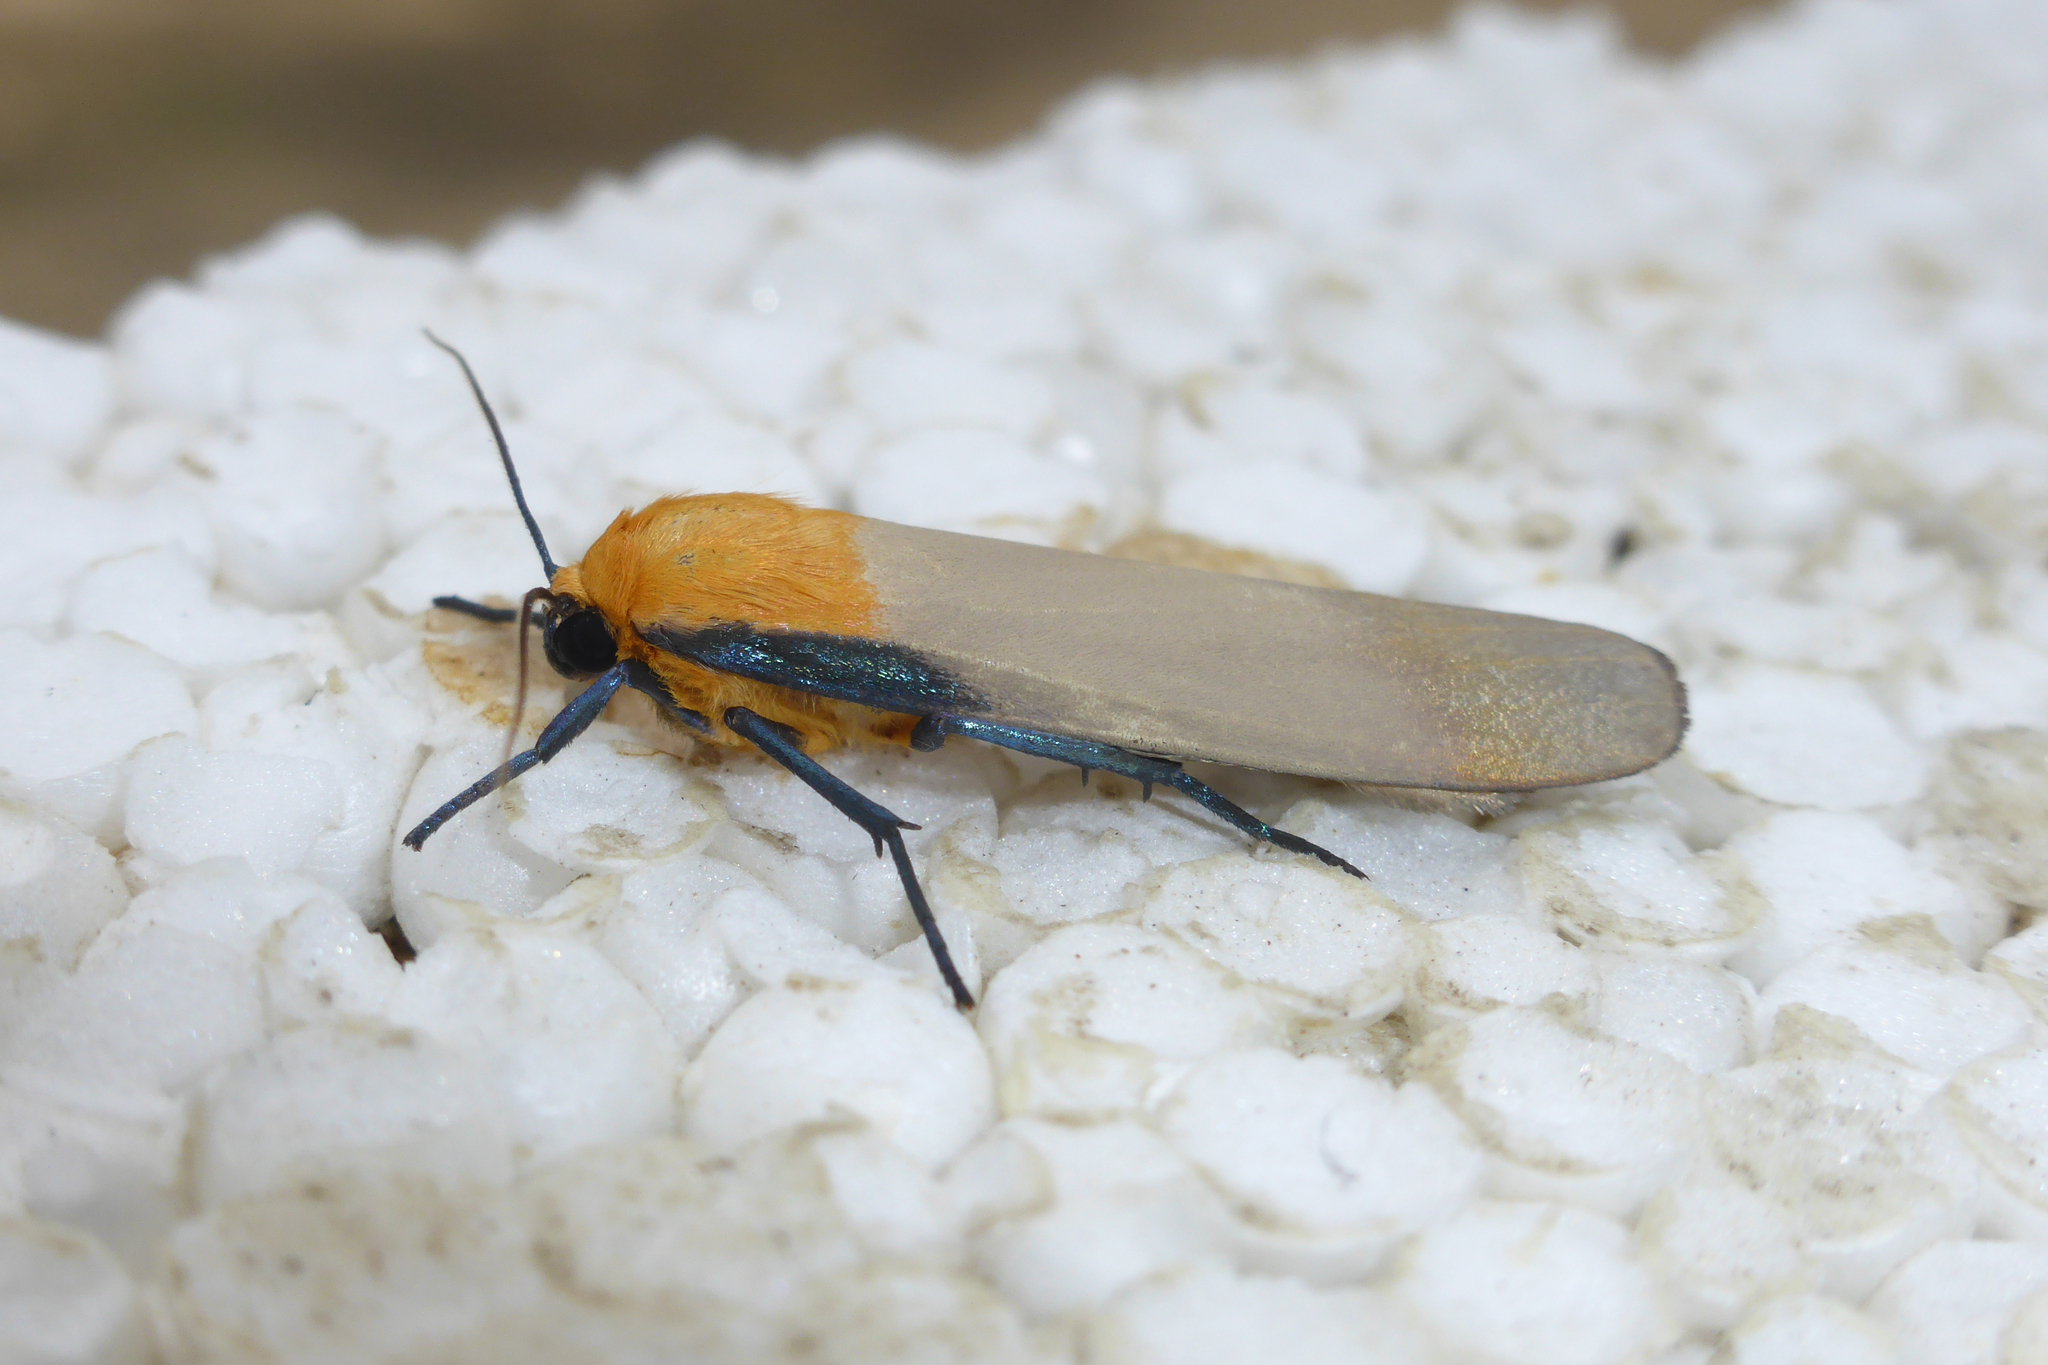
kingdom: Animalia
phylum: Arthropoda
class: Insecta
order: Lepidoptera
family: Erebidae
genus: Lithosia
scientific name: Lithosia quadra
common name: Four-spotted footman
